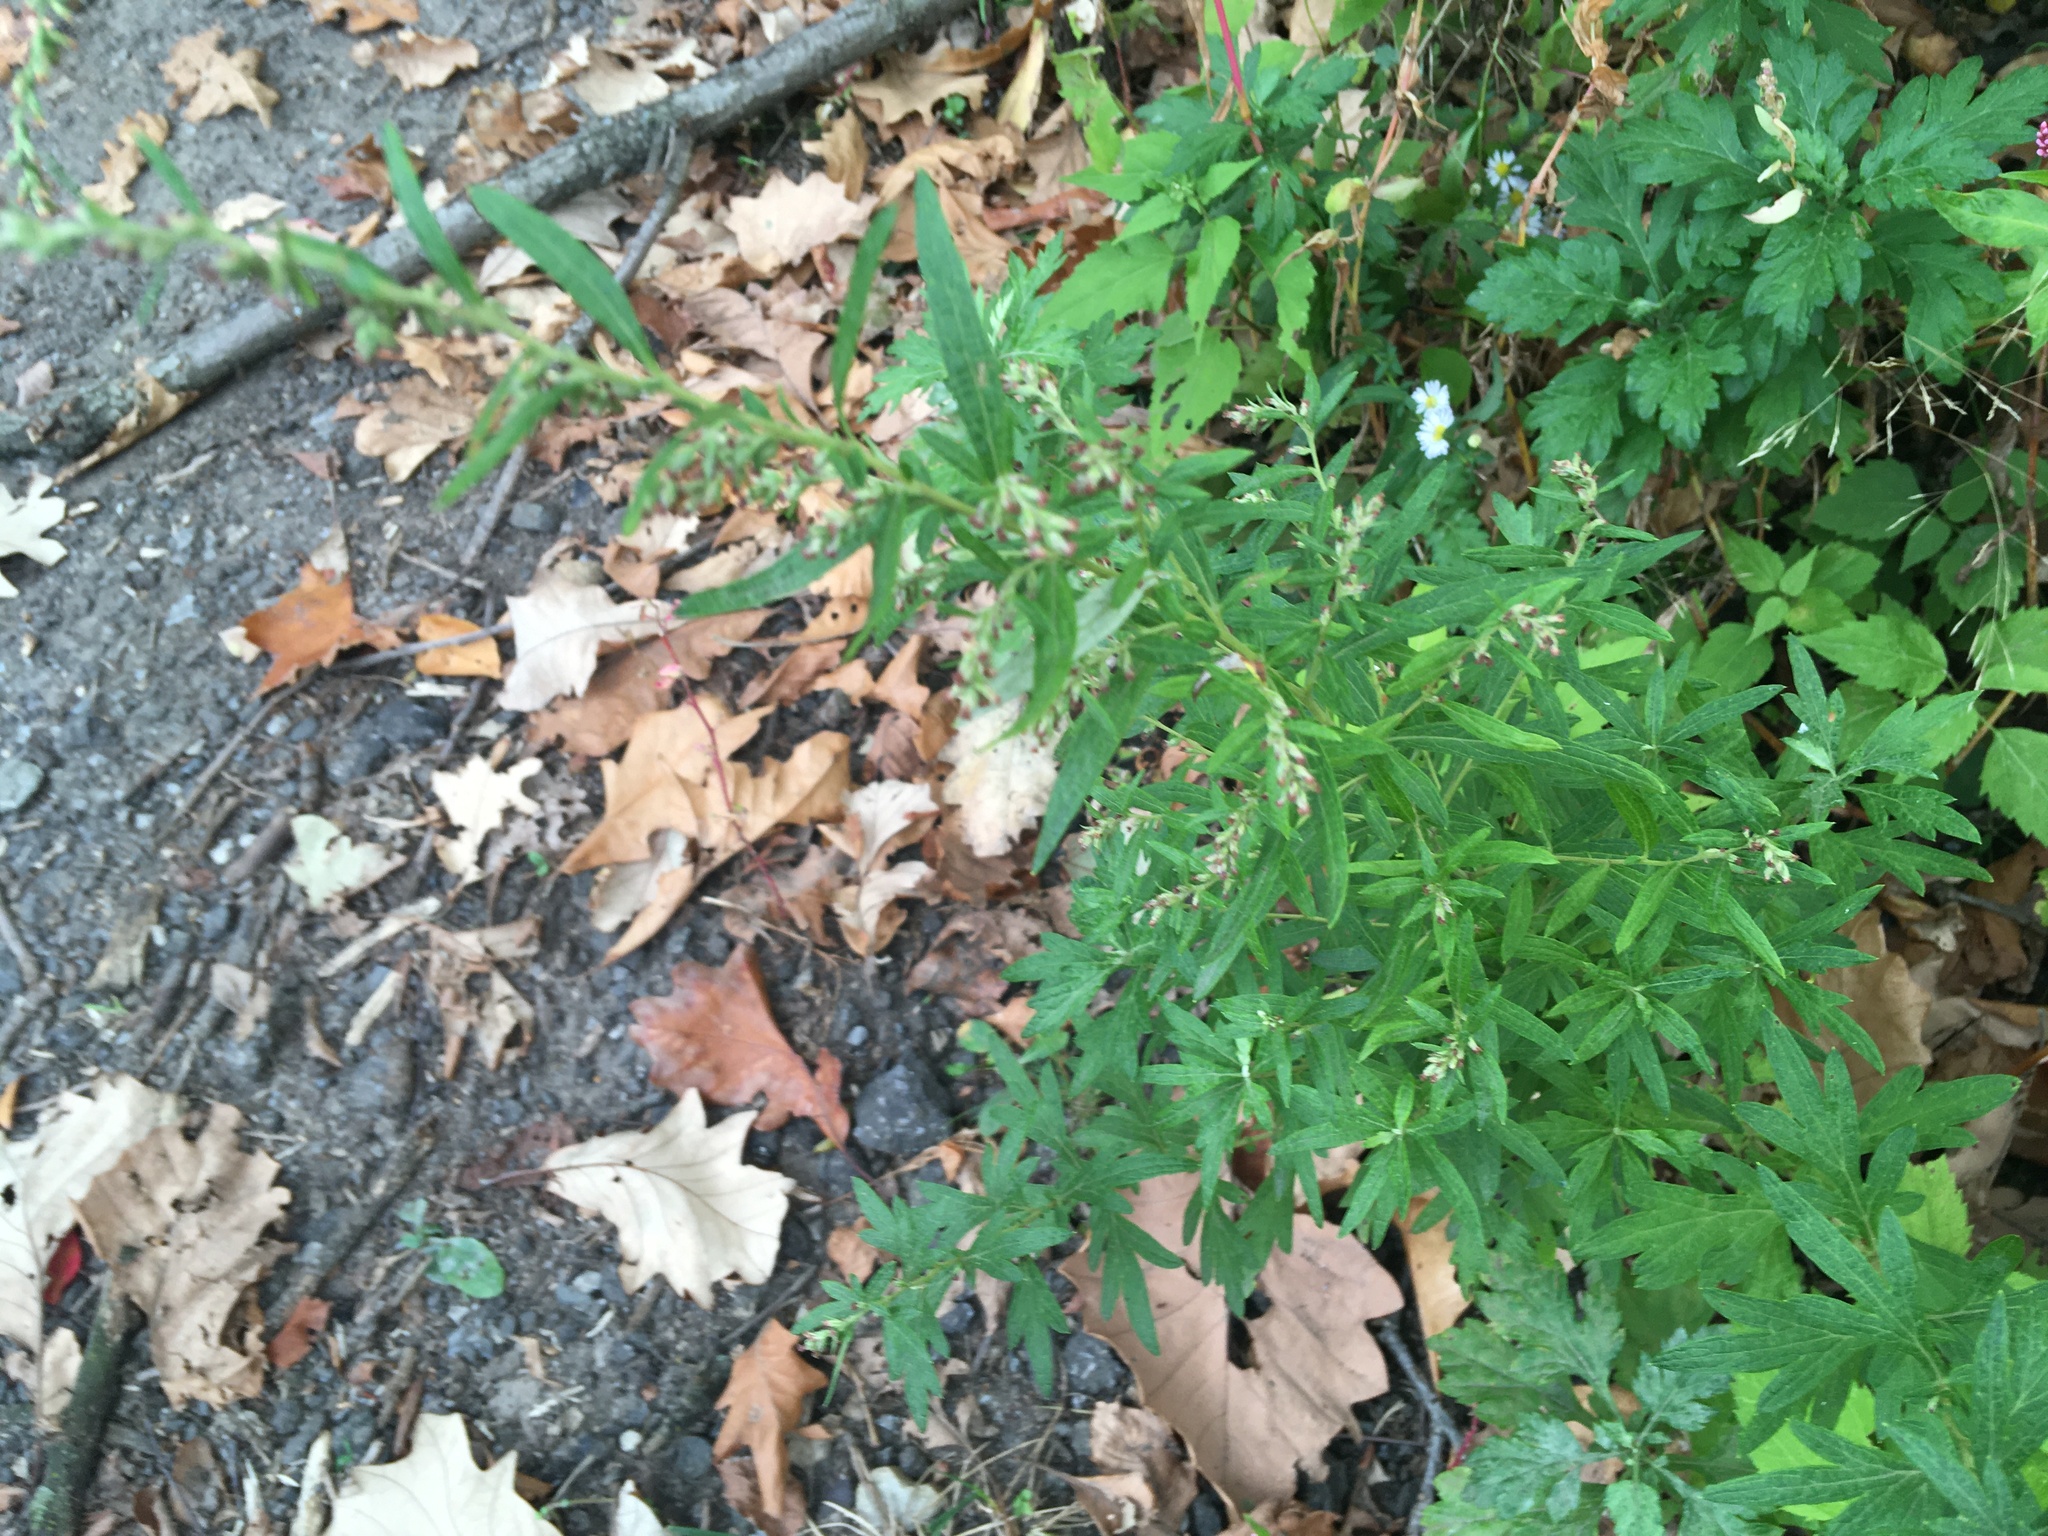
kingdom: Plantae
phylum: Tracheophyta
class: Magnoliopsida
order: Asterales
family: Asteraceae
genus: Artemisia
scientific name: Artemisia vulgaris
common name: Mugwort
